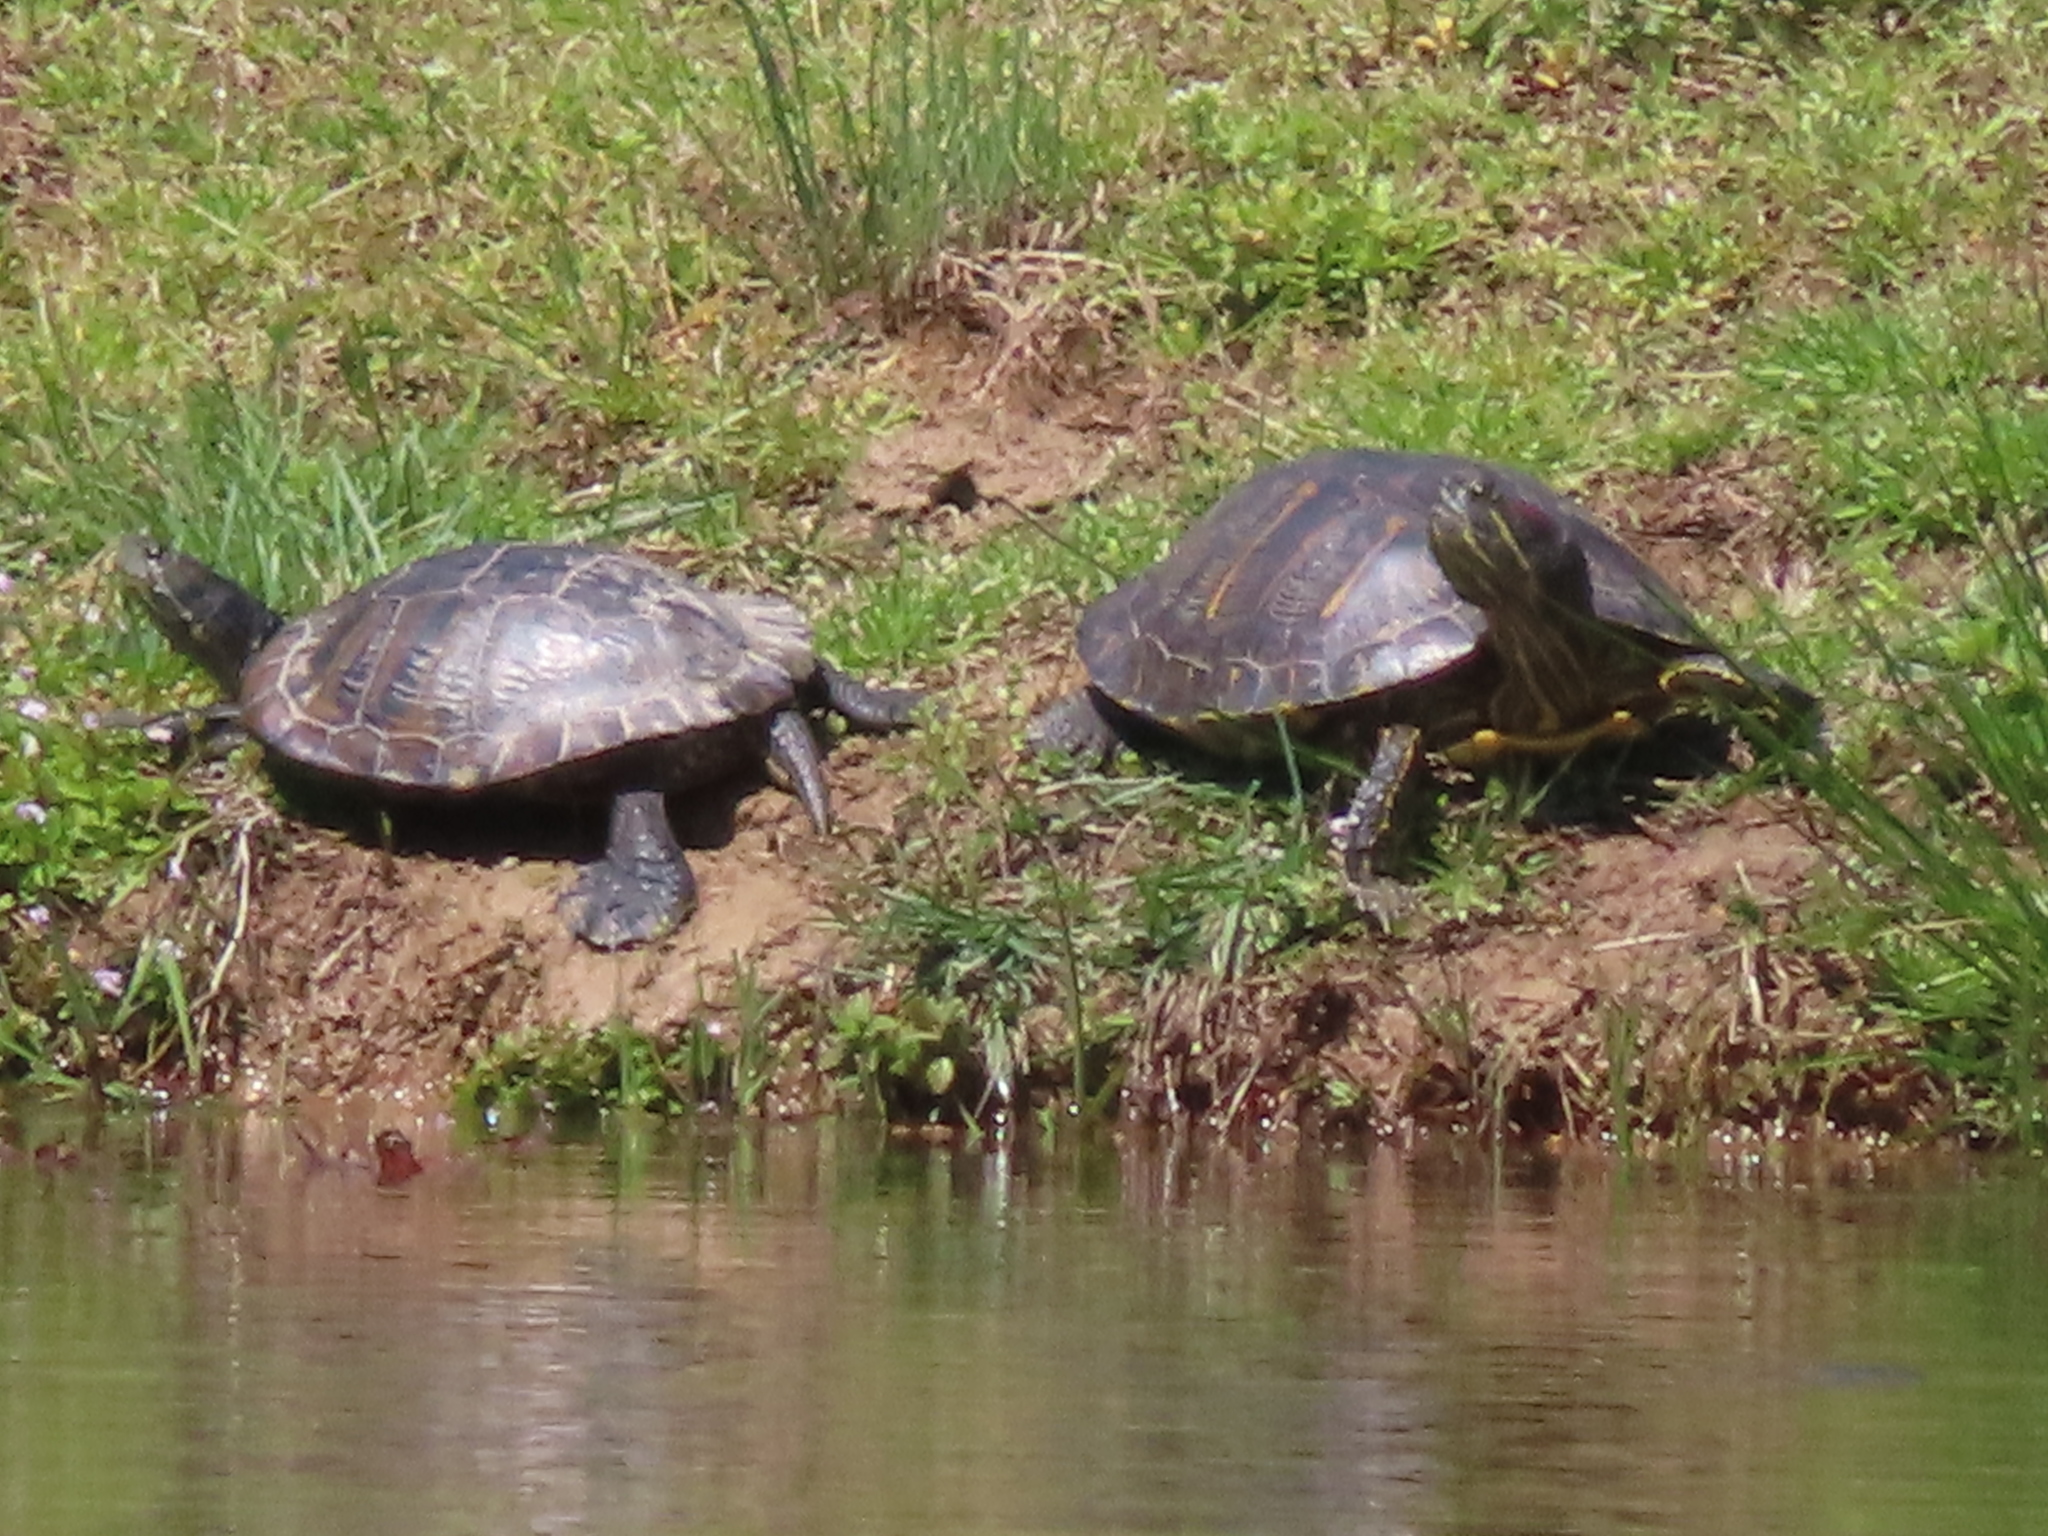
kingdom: Animalia
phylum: Chordata
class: Testudines
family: Emydidae
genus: Trachemys
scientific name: Trachemys scripta
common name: Slider
